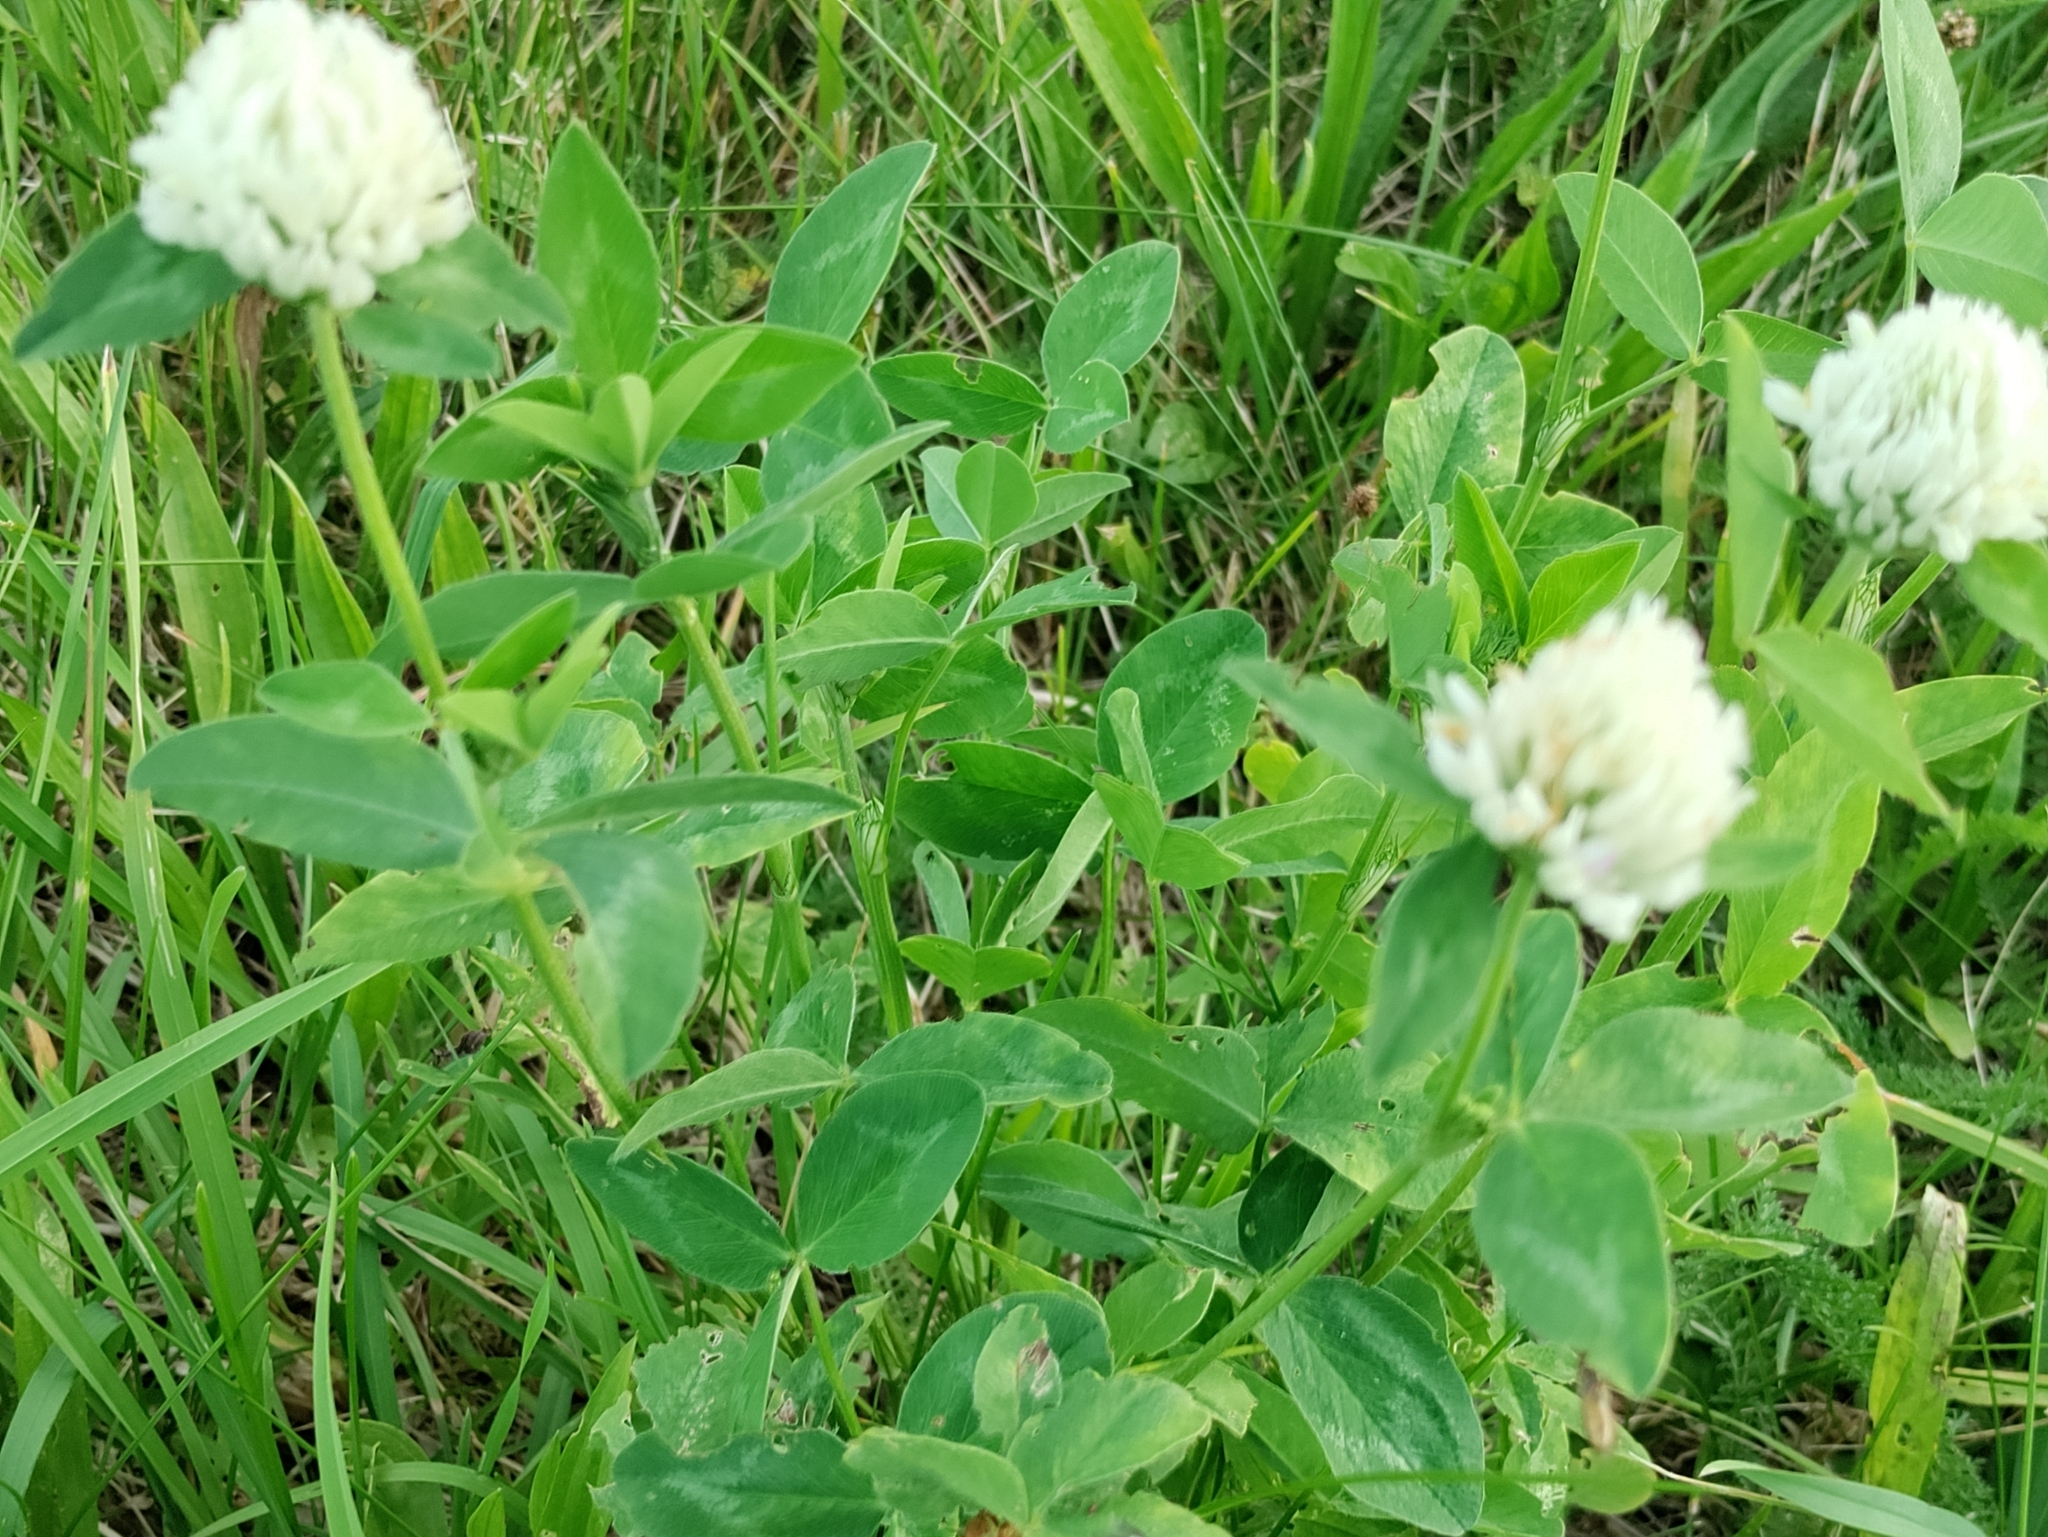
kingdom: Plantae
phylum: Tracheophyta
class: Magnoliopsida
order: Fabales
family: Fabaceae
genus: Trifolium
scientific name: Trifolium pratense
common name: Red clover
